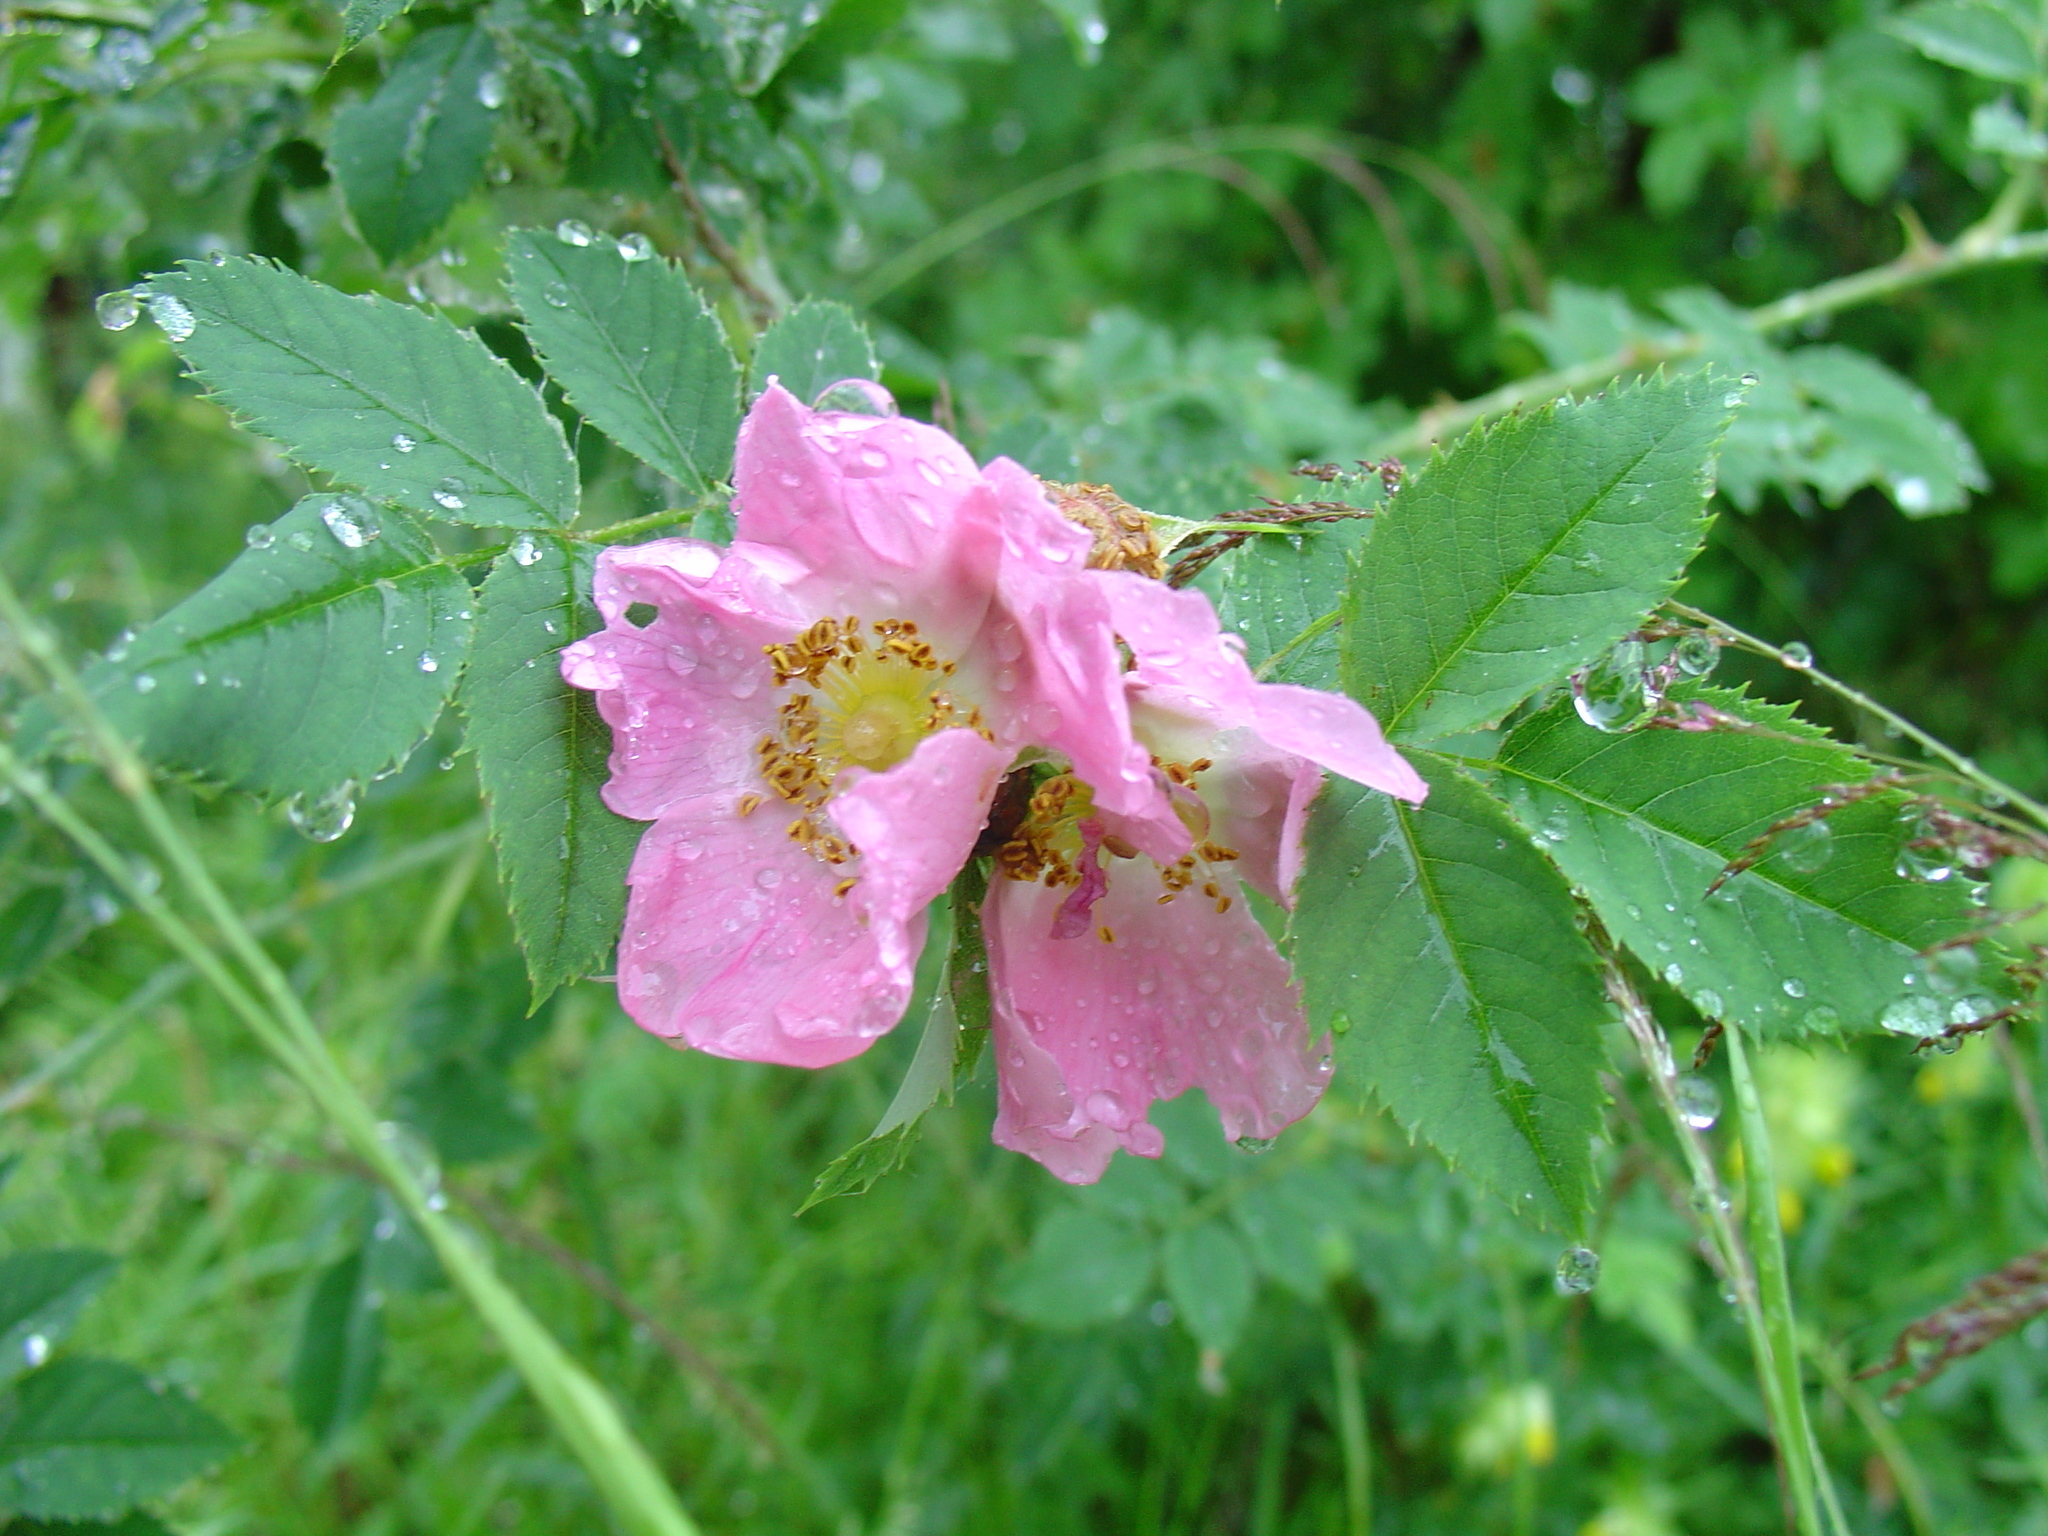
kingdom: Plantae
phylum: Tracheophyta
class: Magnoliopsida
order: Rosales
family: Rosaceae
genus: Rosa
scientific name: Rosa majalis
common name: Cinnamon rose
